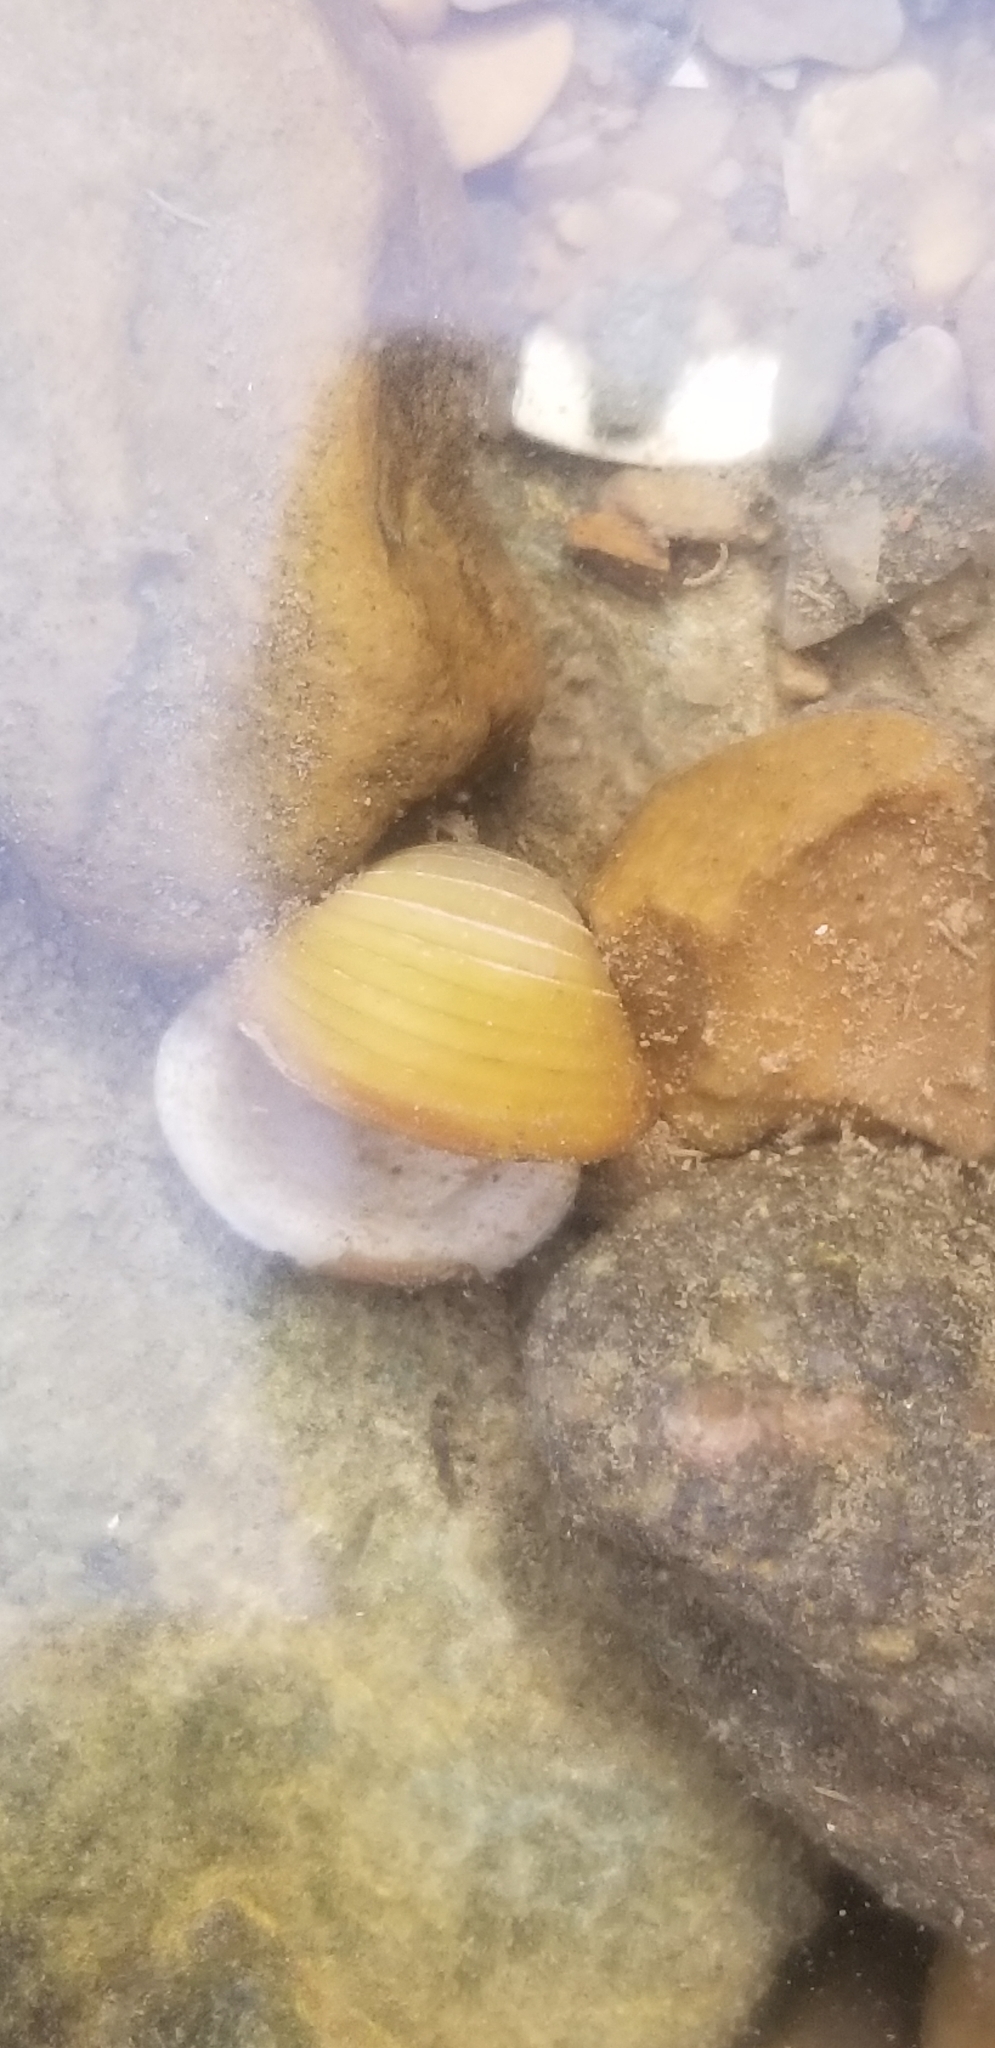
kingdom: Animalia
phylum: Mollusca
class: Bivalvia
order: Venerida
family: Cyrenidae
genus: Corbicula
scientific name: Corbicula fluminea
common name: Asian clam
